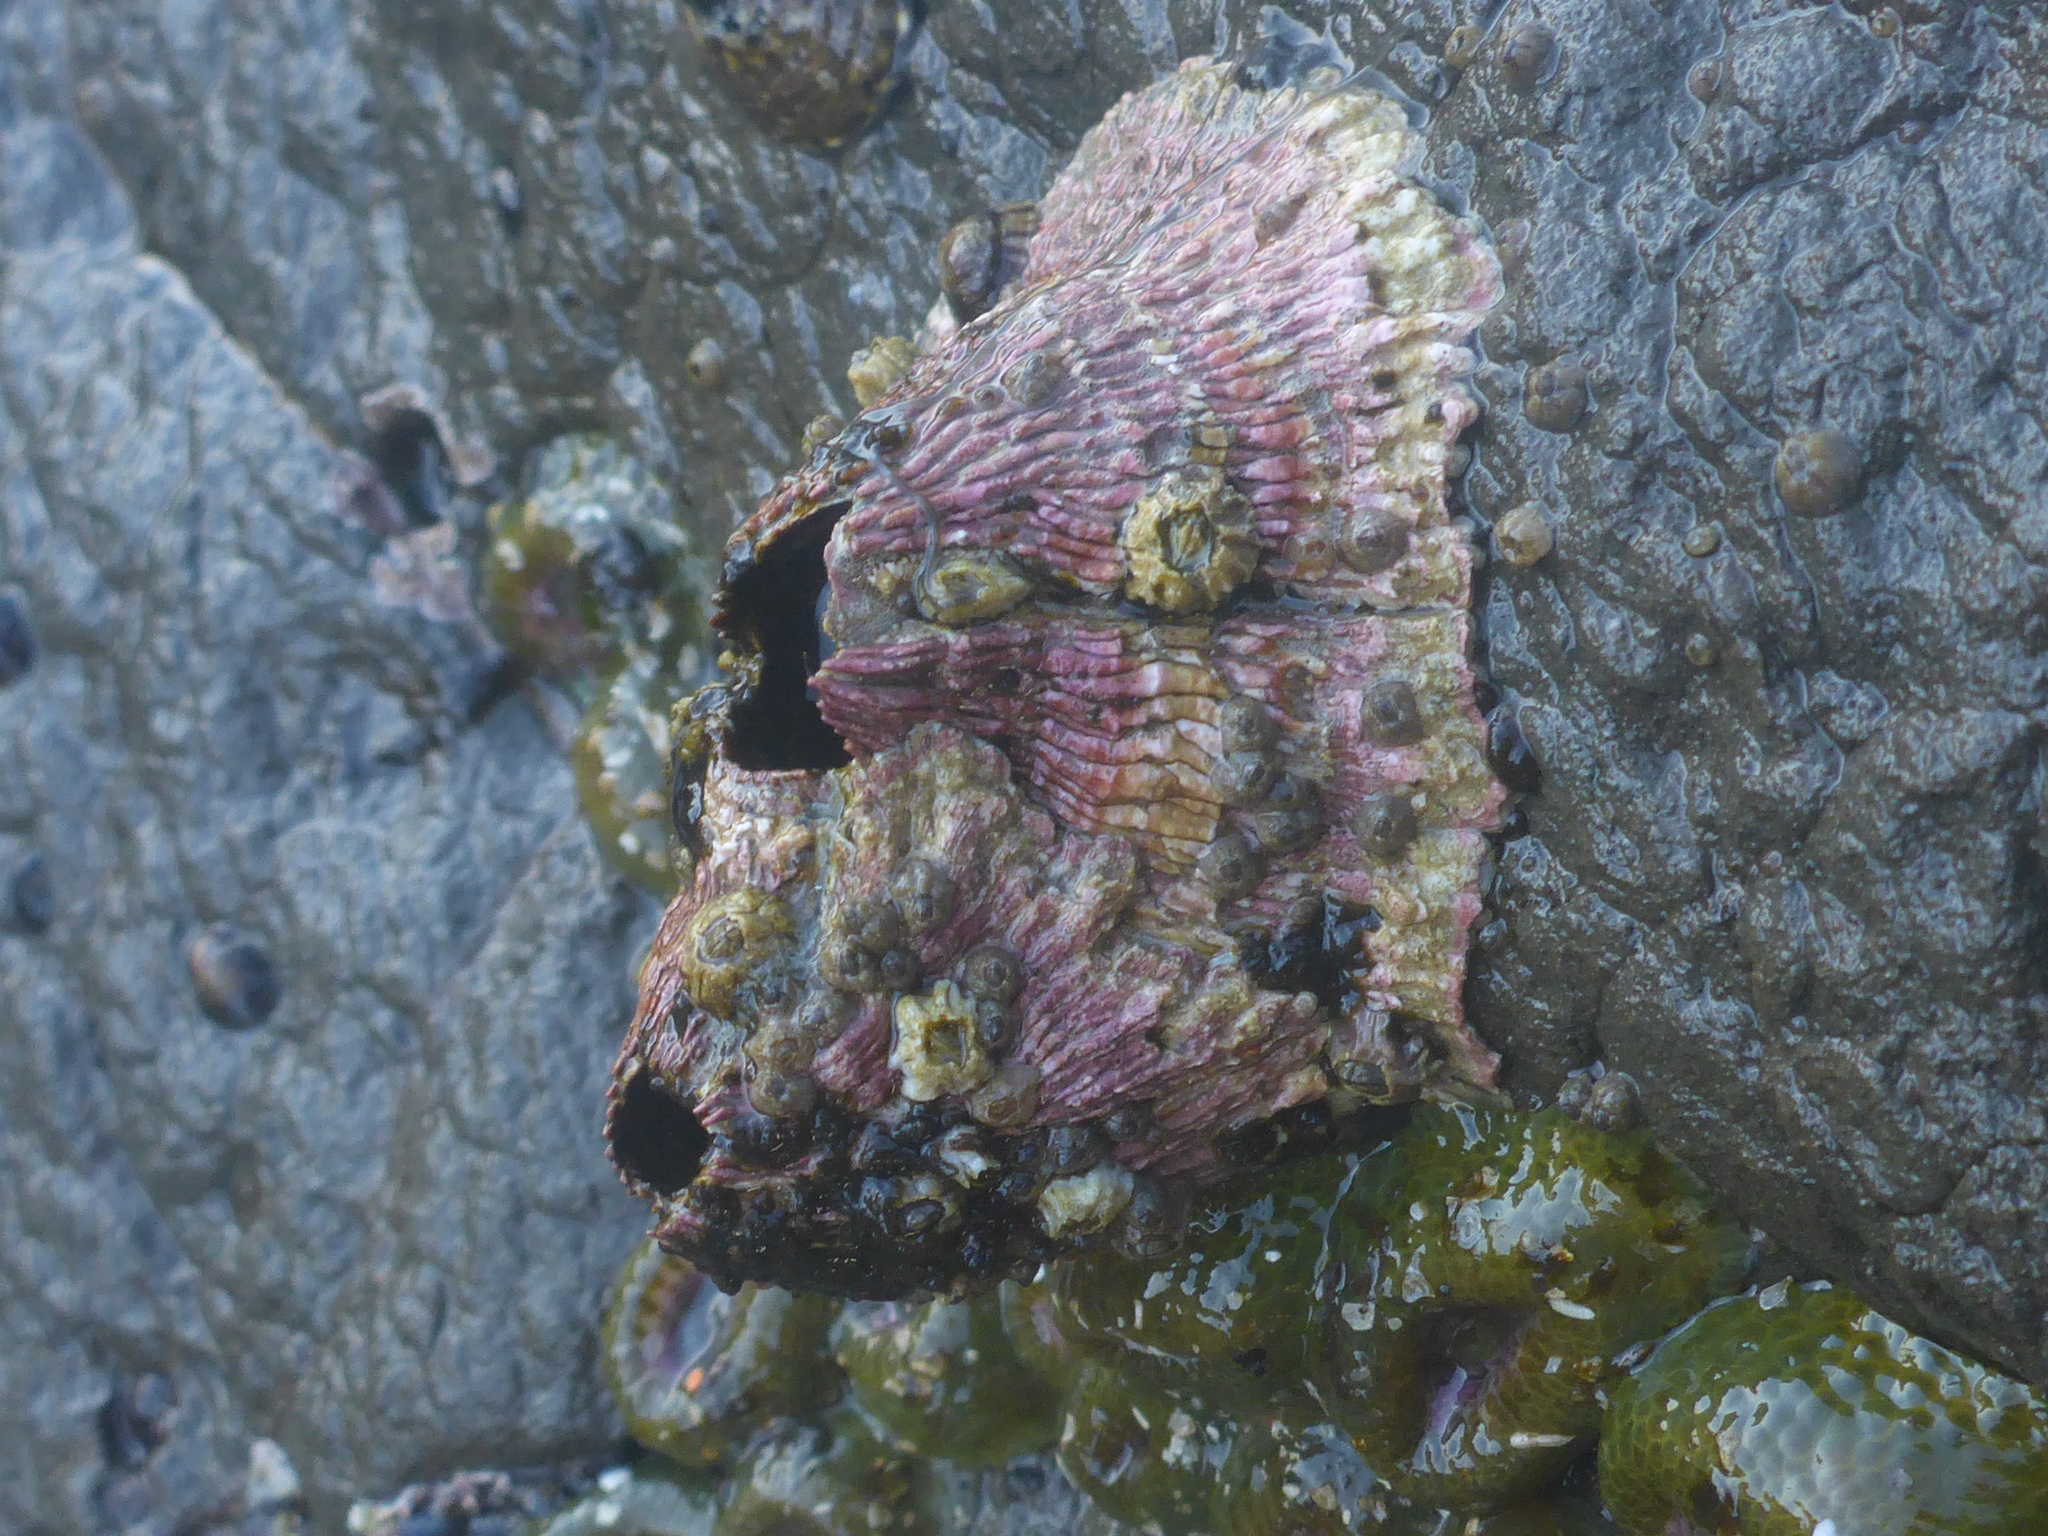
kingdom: Animalia
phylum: Arthropoda
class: Maxillopoda
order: Sessilia
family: Tetraclitidae
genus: Tetraclita
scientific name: Tetraclita rubescens
